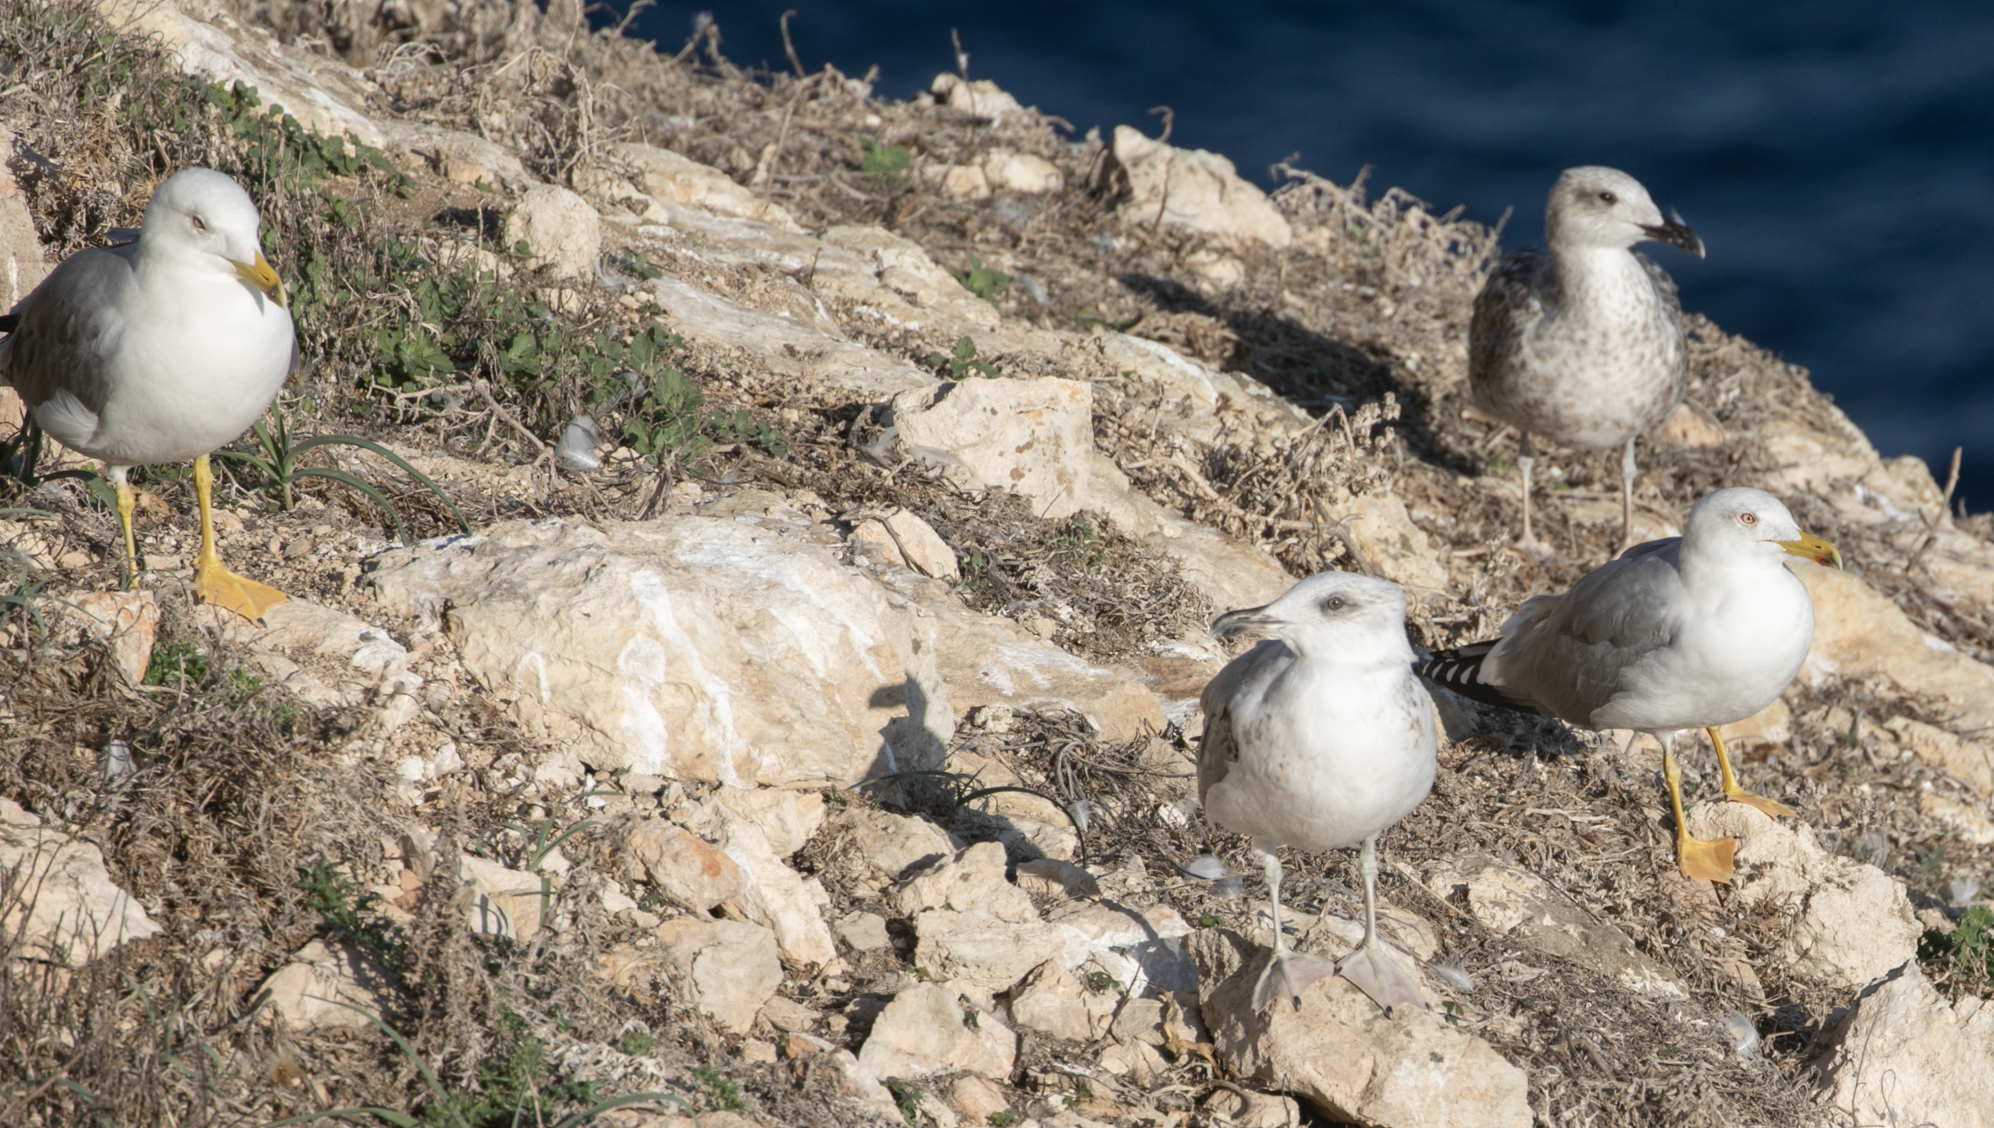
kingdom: Animalia
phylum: Chordata
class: Aves
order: Charadriiformes
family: Laridae
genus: Larus
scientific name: Larus michahellis
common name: Yellow-legged gull
